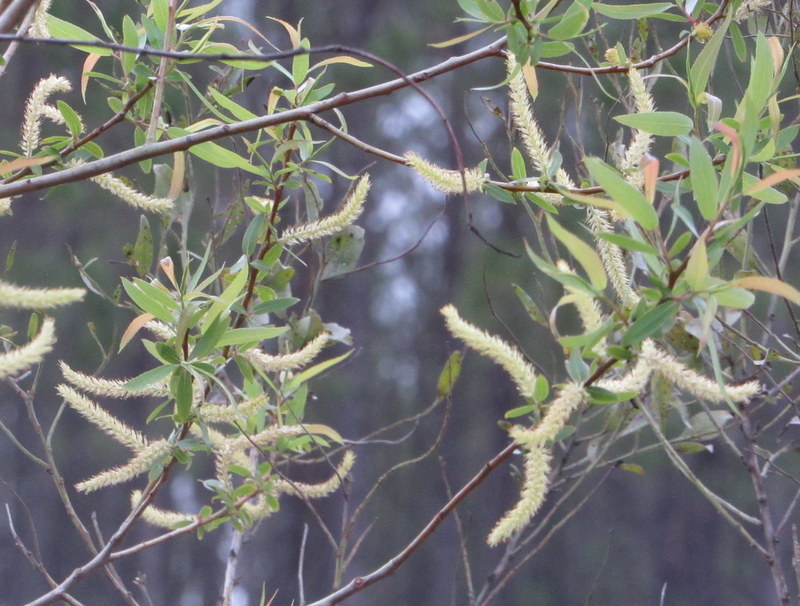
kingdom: Plantae
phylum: Tracheophyta
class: Magnoliopsida
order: Malpighiales
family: Salicaceae
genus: Salix
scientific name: Salix caroliniana
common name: Carolina willow
